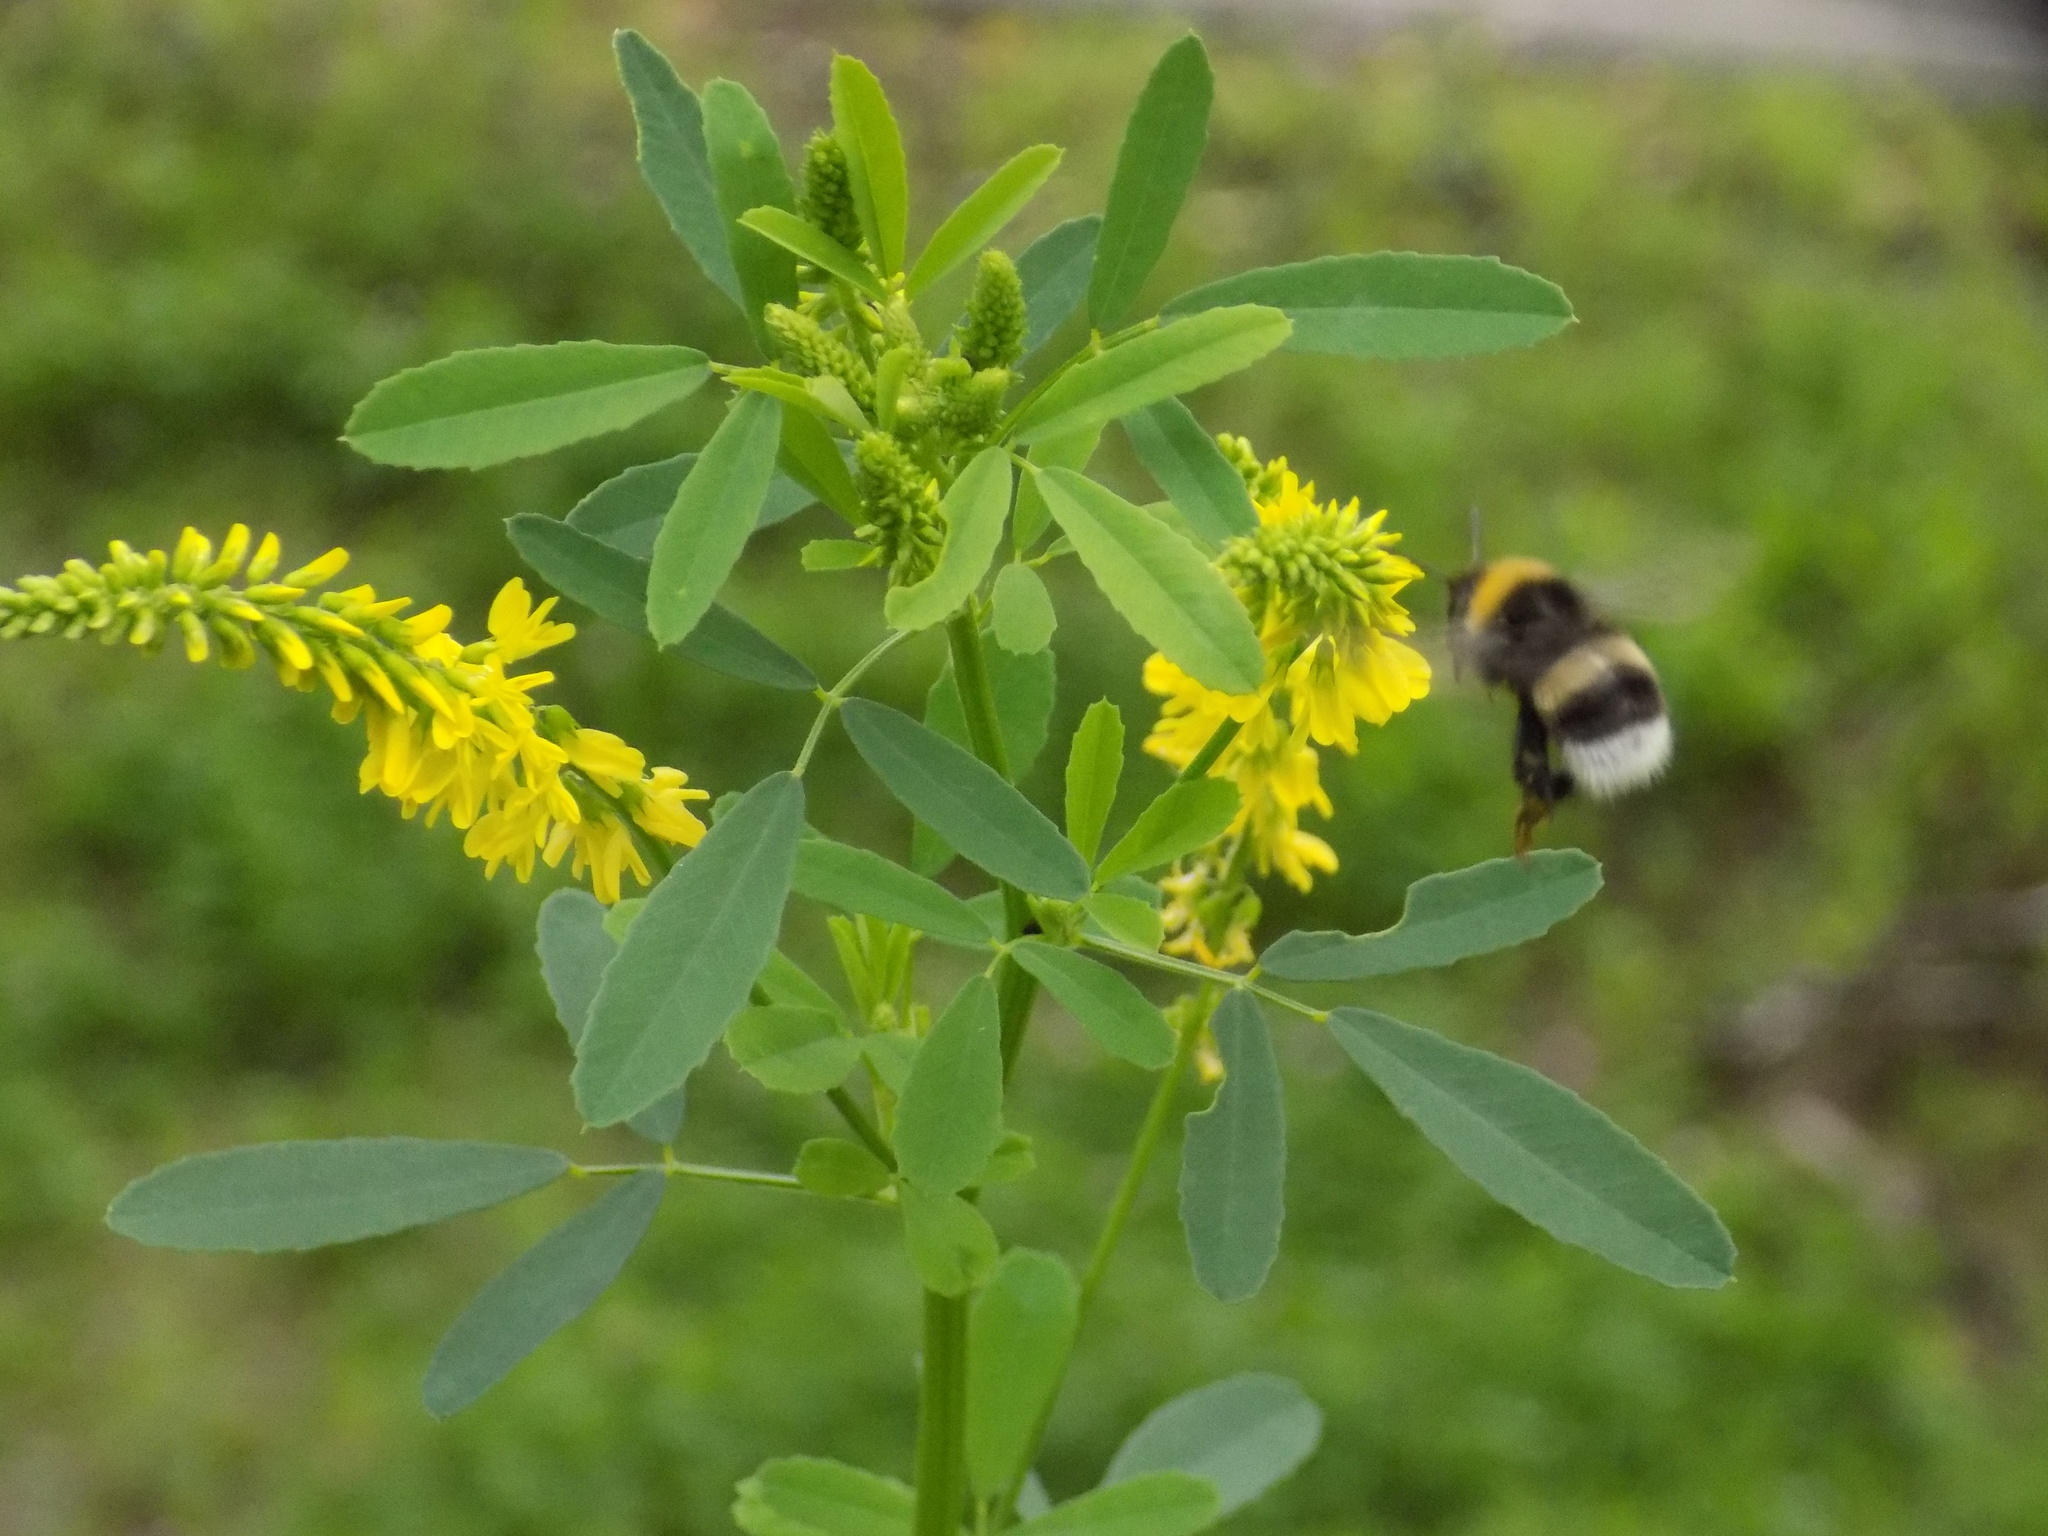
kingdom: Animalia
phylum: Arthropoda
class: Insecta
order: Hymenoptera
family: Apidae
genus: Bombus
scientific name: Bombus
